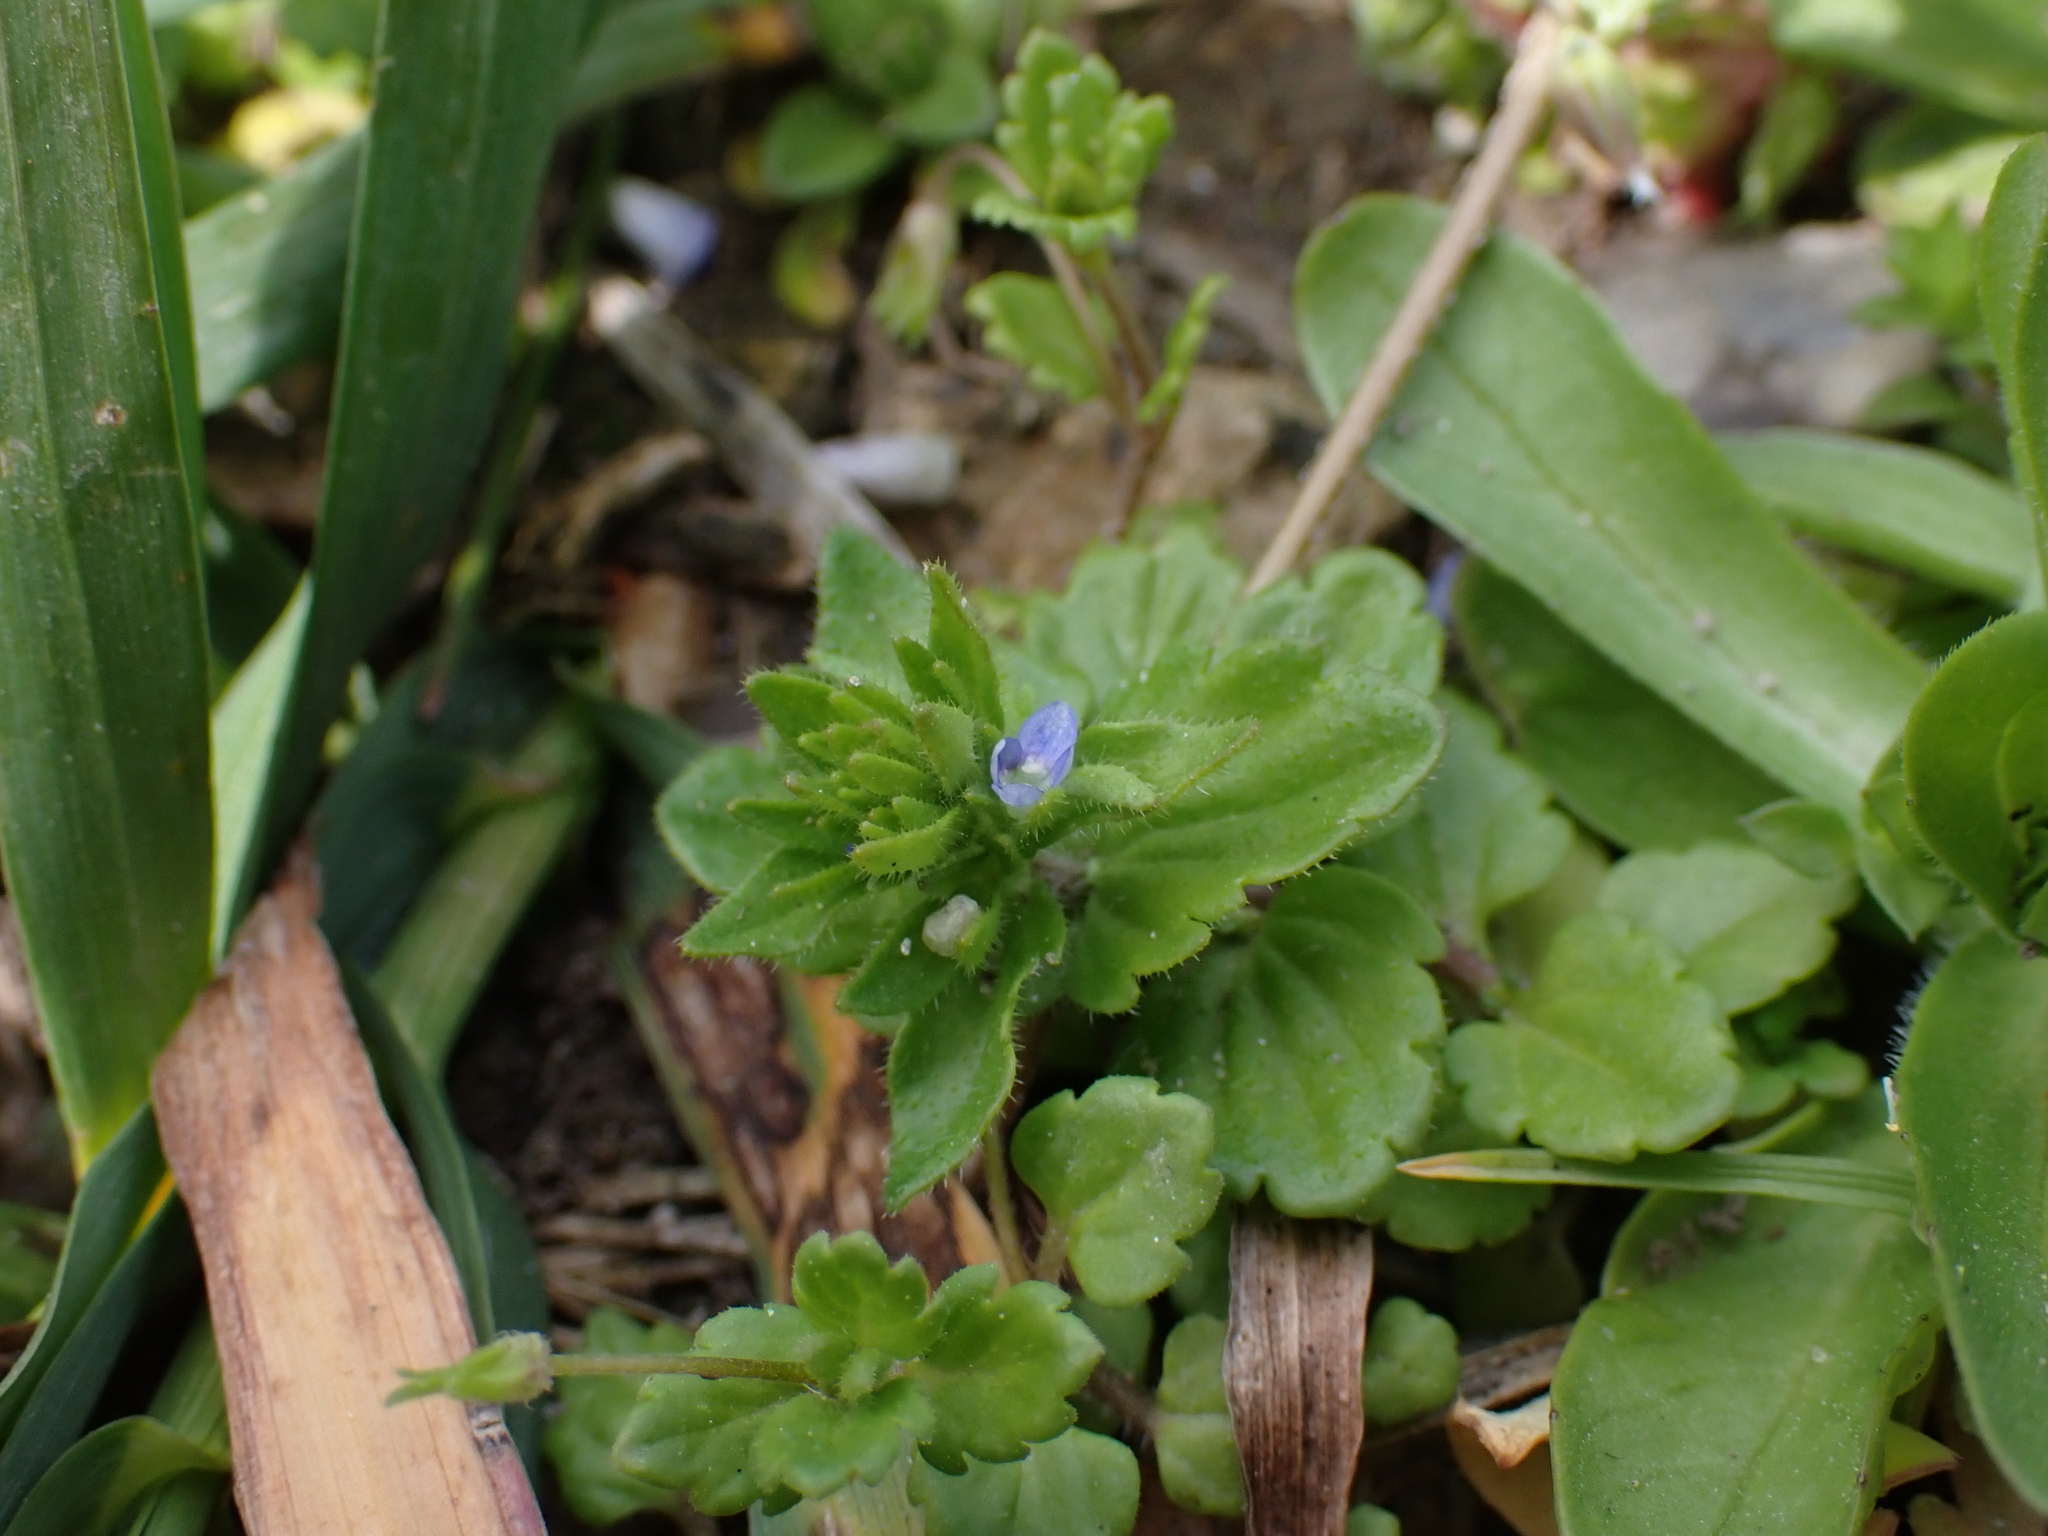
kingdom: Plantae
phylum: Tracheophyta
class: Magnoliopsida
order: Lamiales
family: Plantaginaceae
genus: Veronica
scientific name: Veronica arvensis
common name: Corn speedwell
